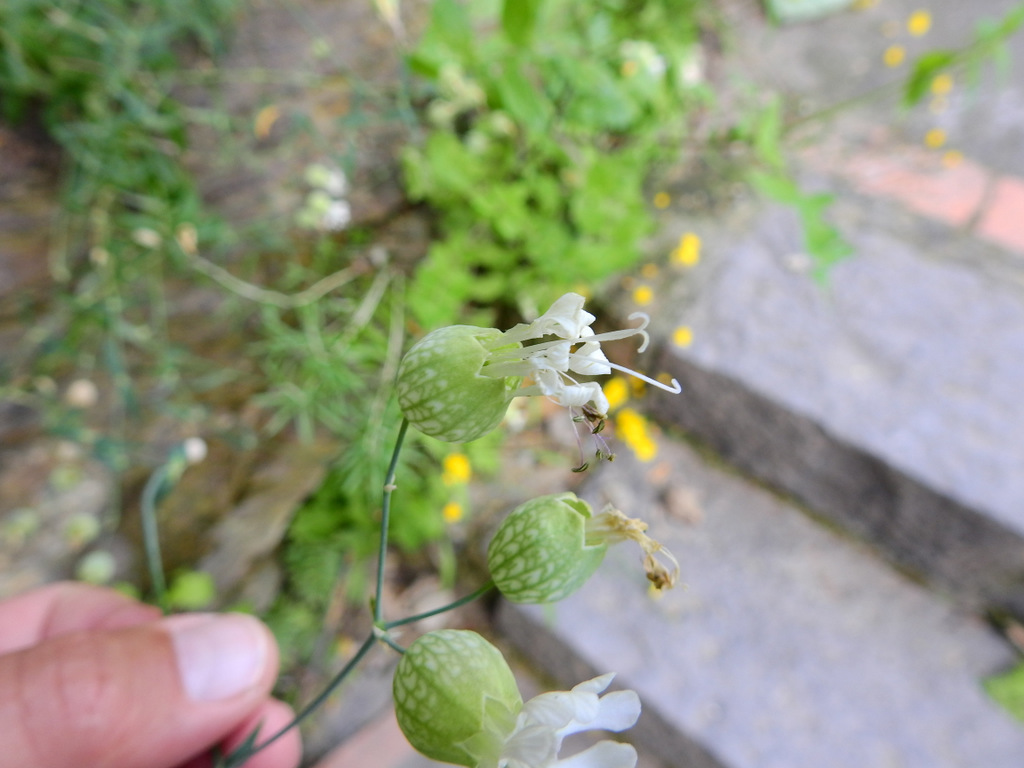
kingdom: Plantae
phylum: Tracheophyta
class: Magnoliopsida
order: Caryophyllales
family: Caryophyllaceae
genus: Silene
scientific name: Silene vulgaris
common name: Bladder campion
